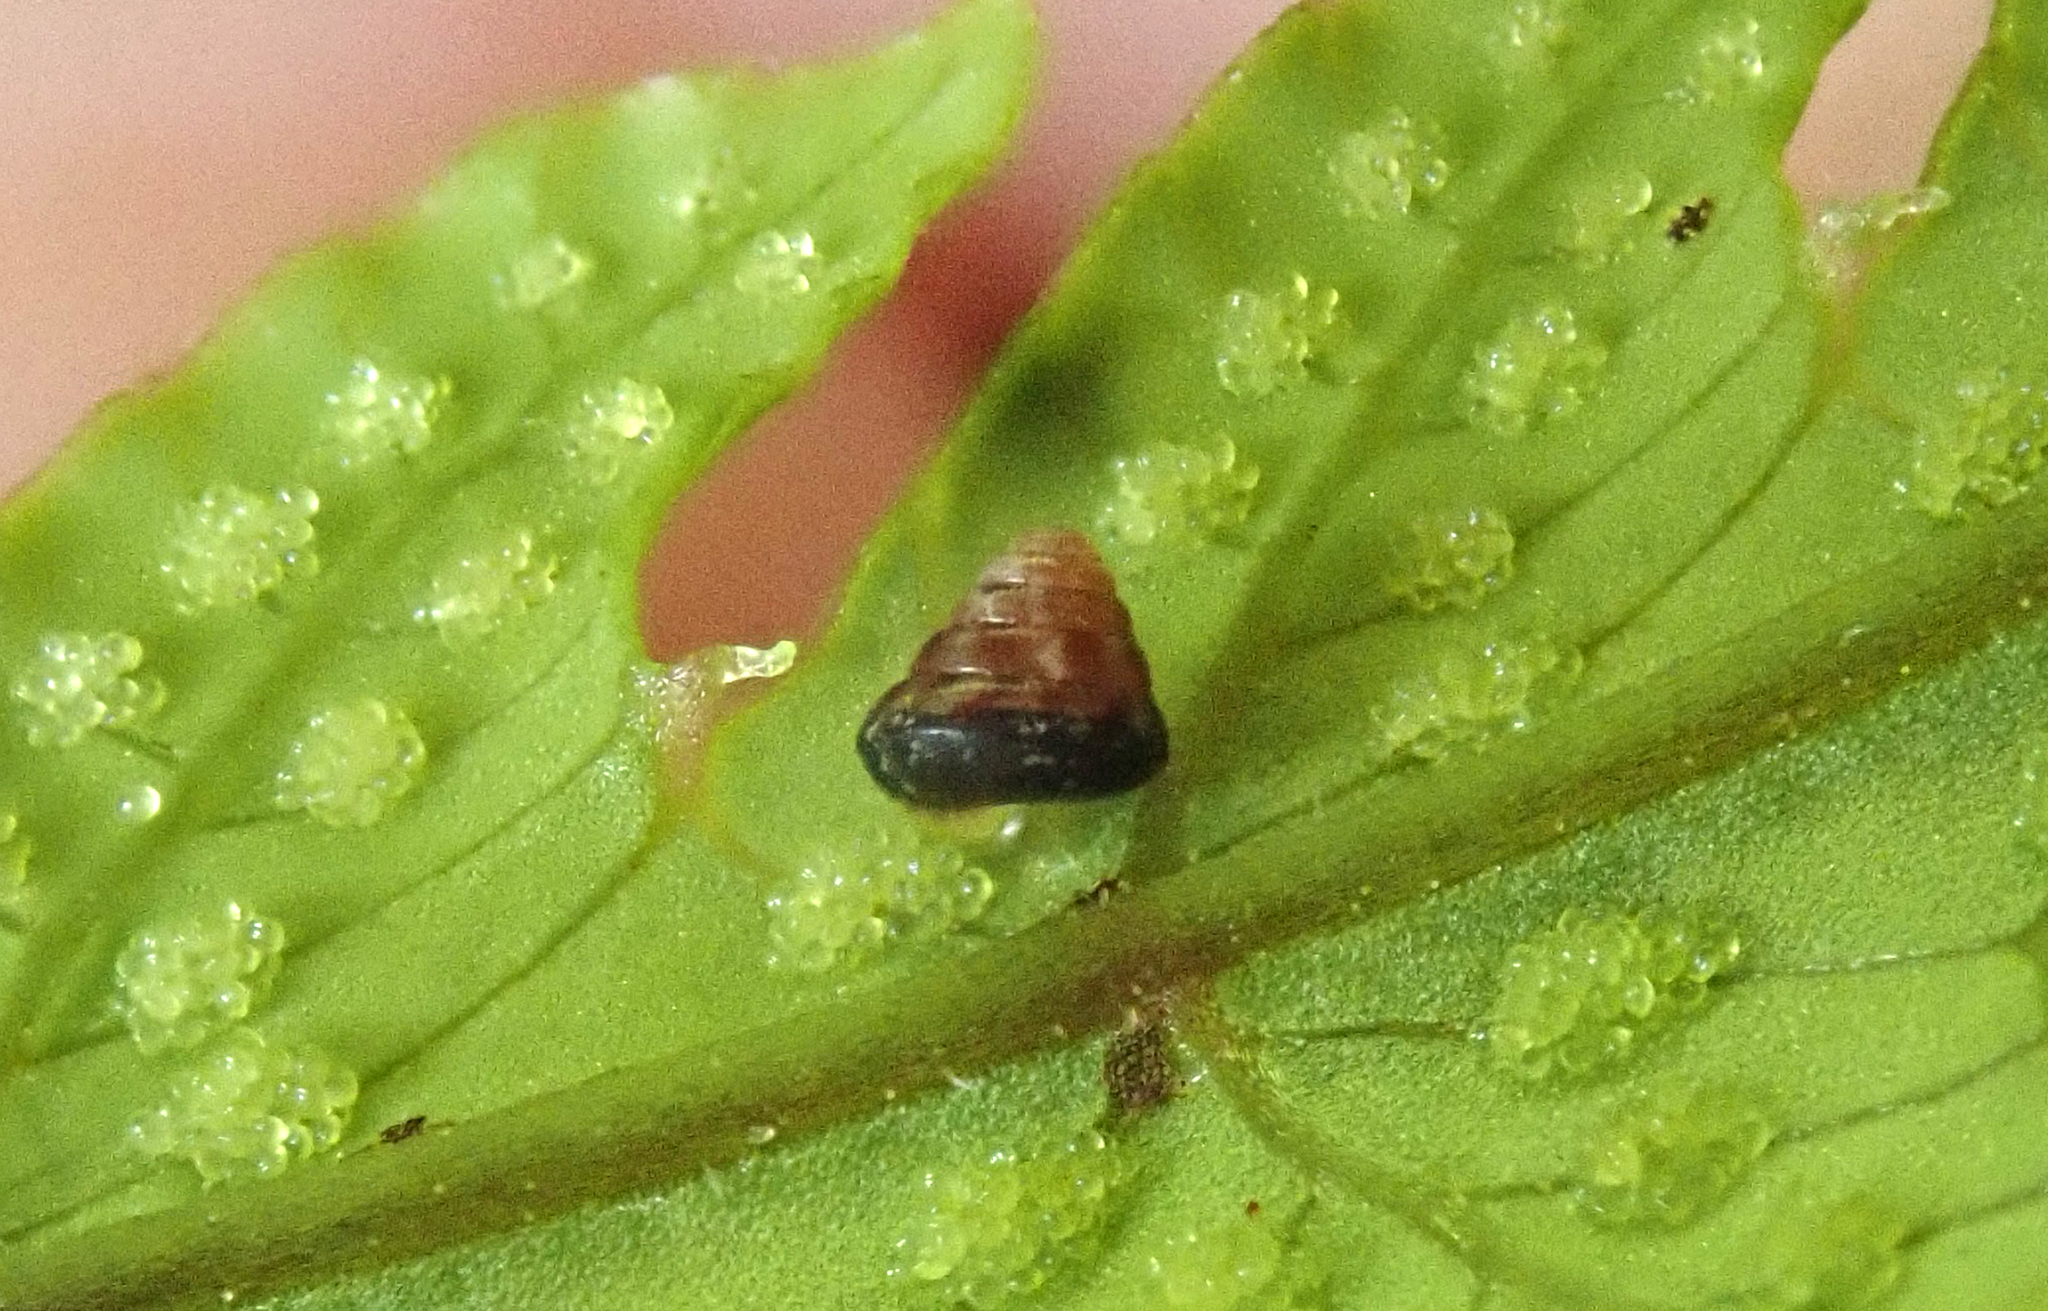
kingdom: Animalia
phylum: Mollusca
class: Gastropoda
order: Stylommatophora
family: Punctidae
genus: Phrixgnathus
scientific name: Phrixgnathus erigone
